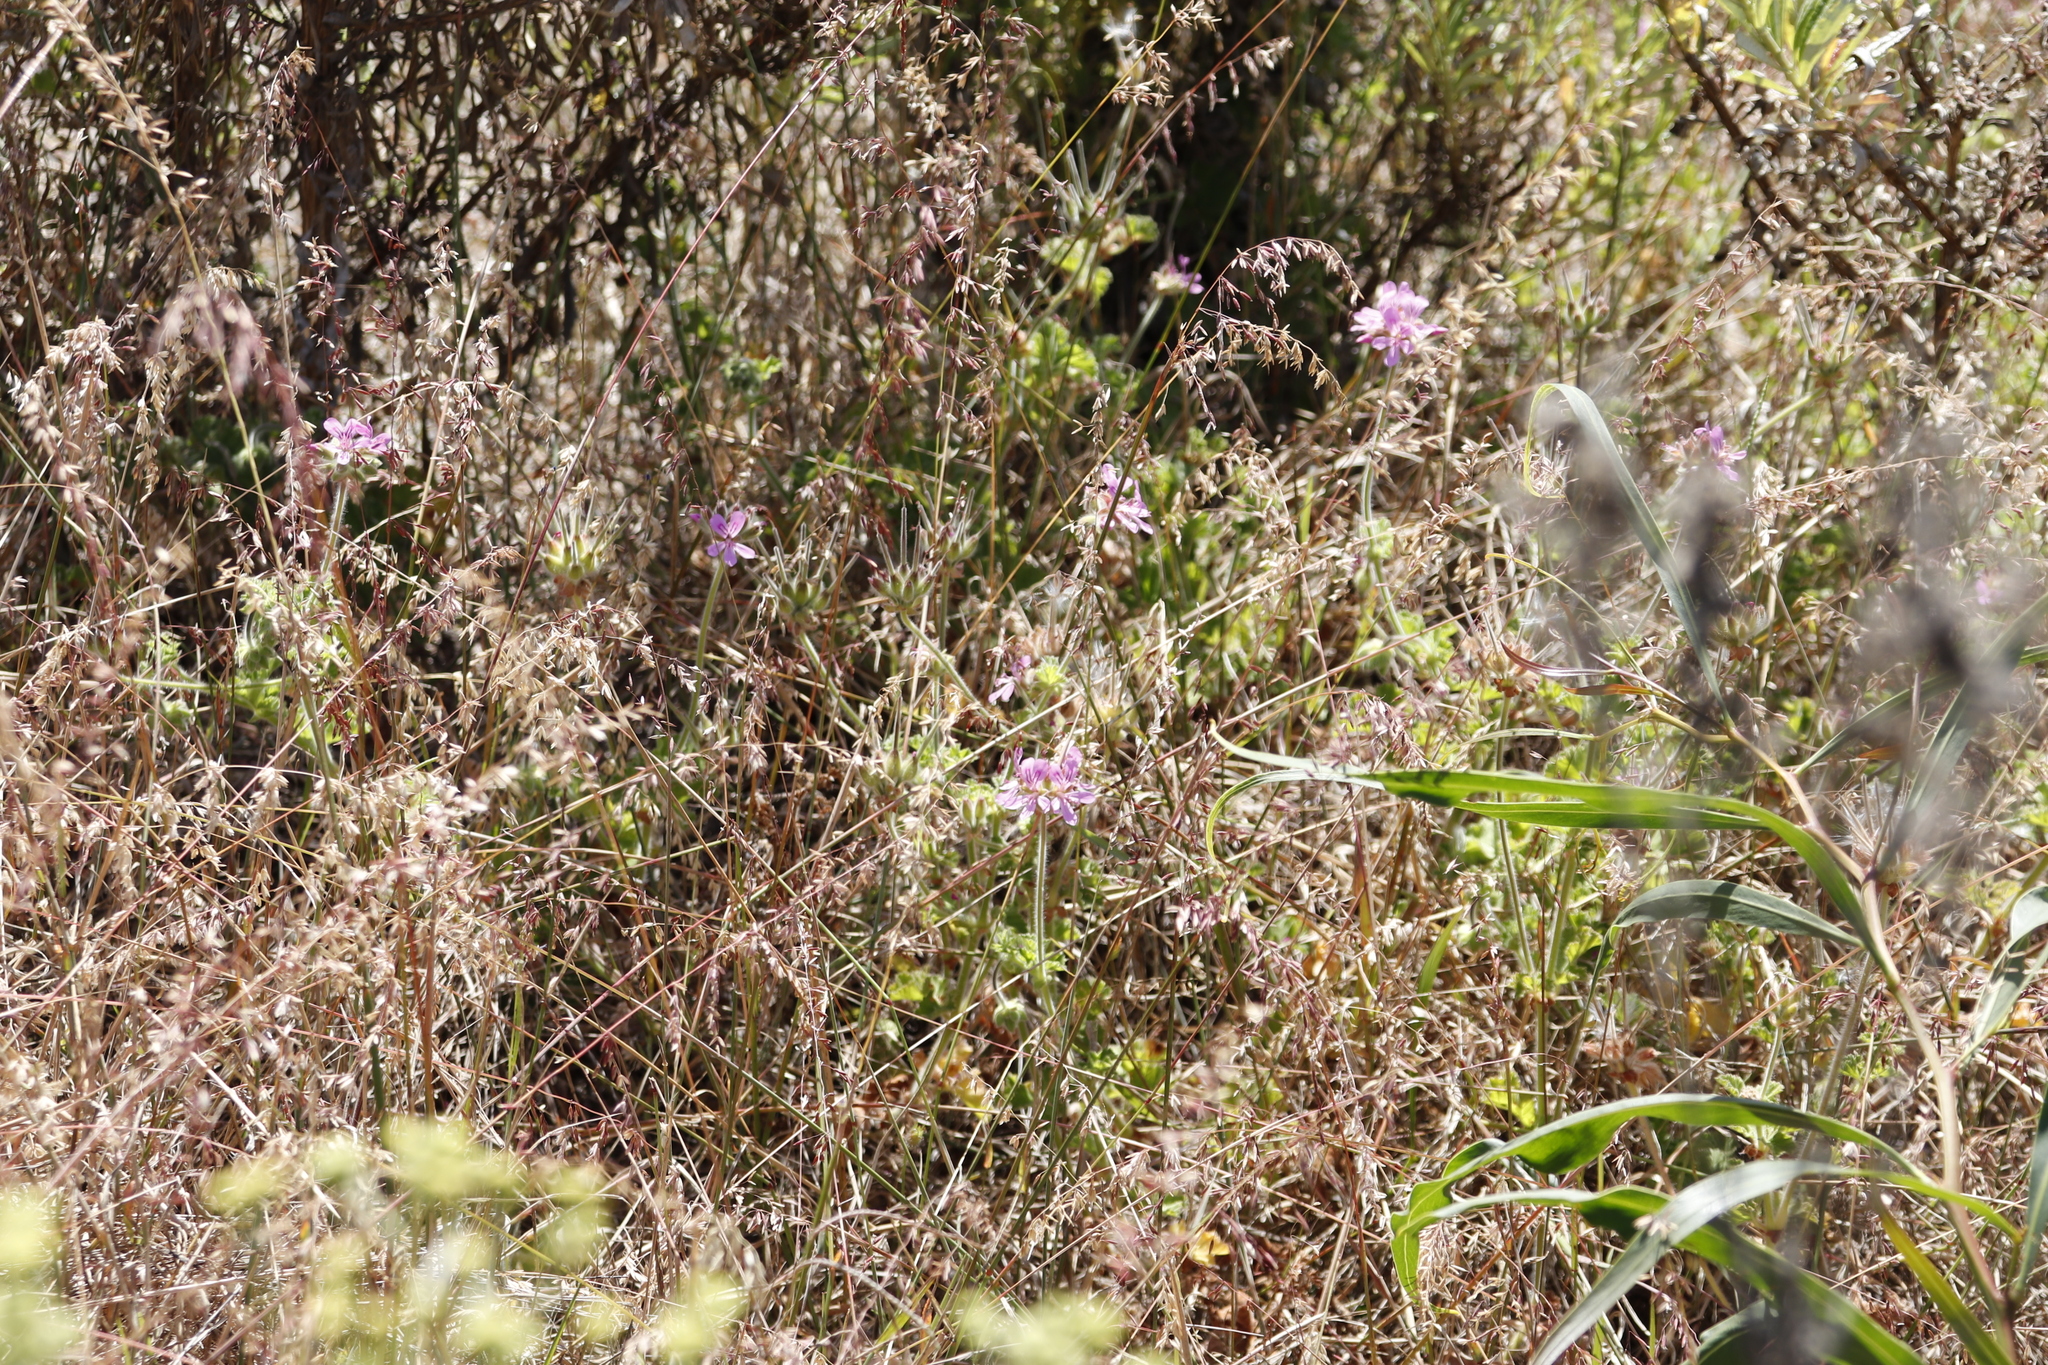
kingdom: Plantae
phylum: Tracheophyta
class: Magnoliopsida
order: Geraniales
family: Geraniaceae
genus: Pelargonium
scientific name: Pelargonium capitatum
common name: Rose scented geranium
